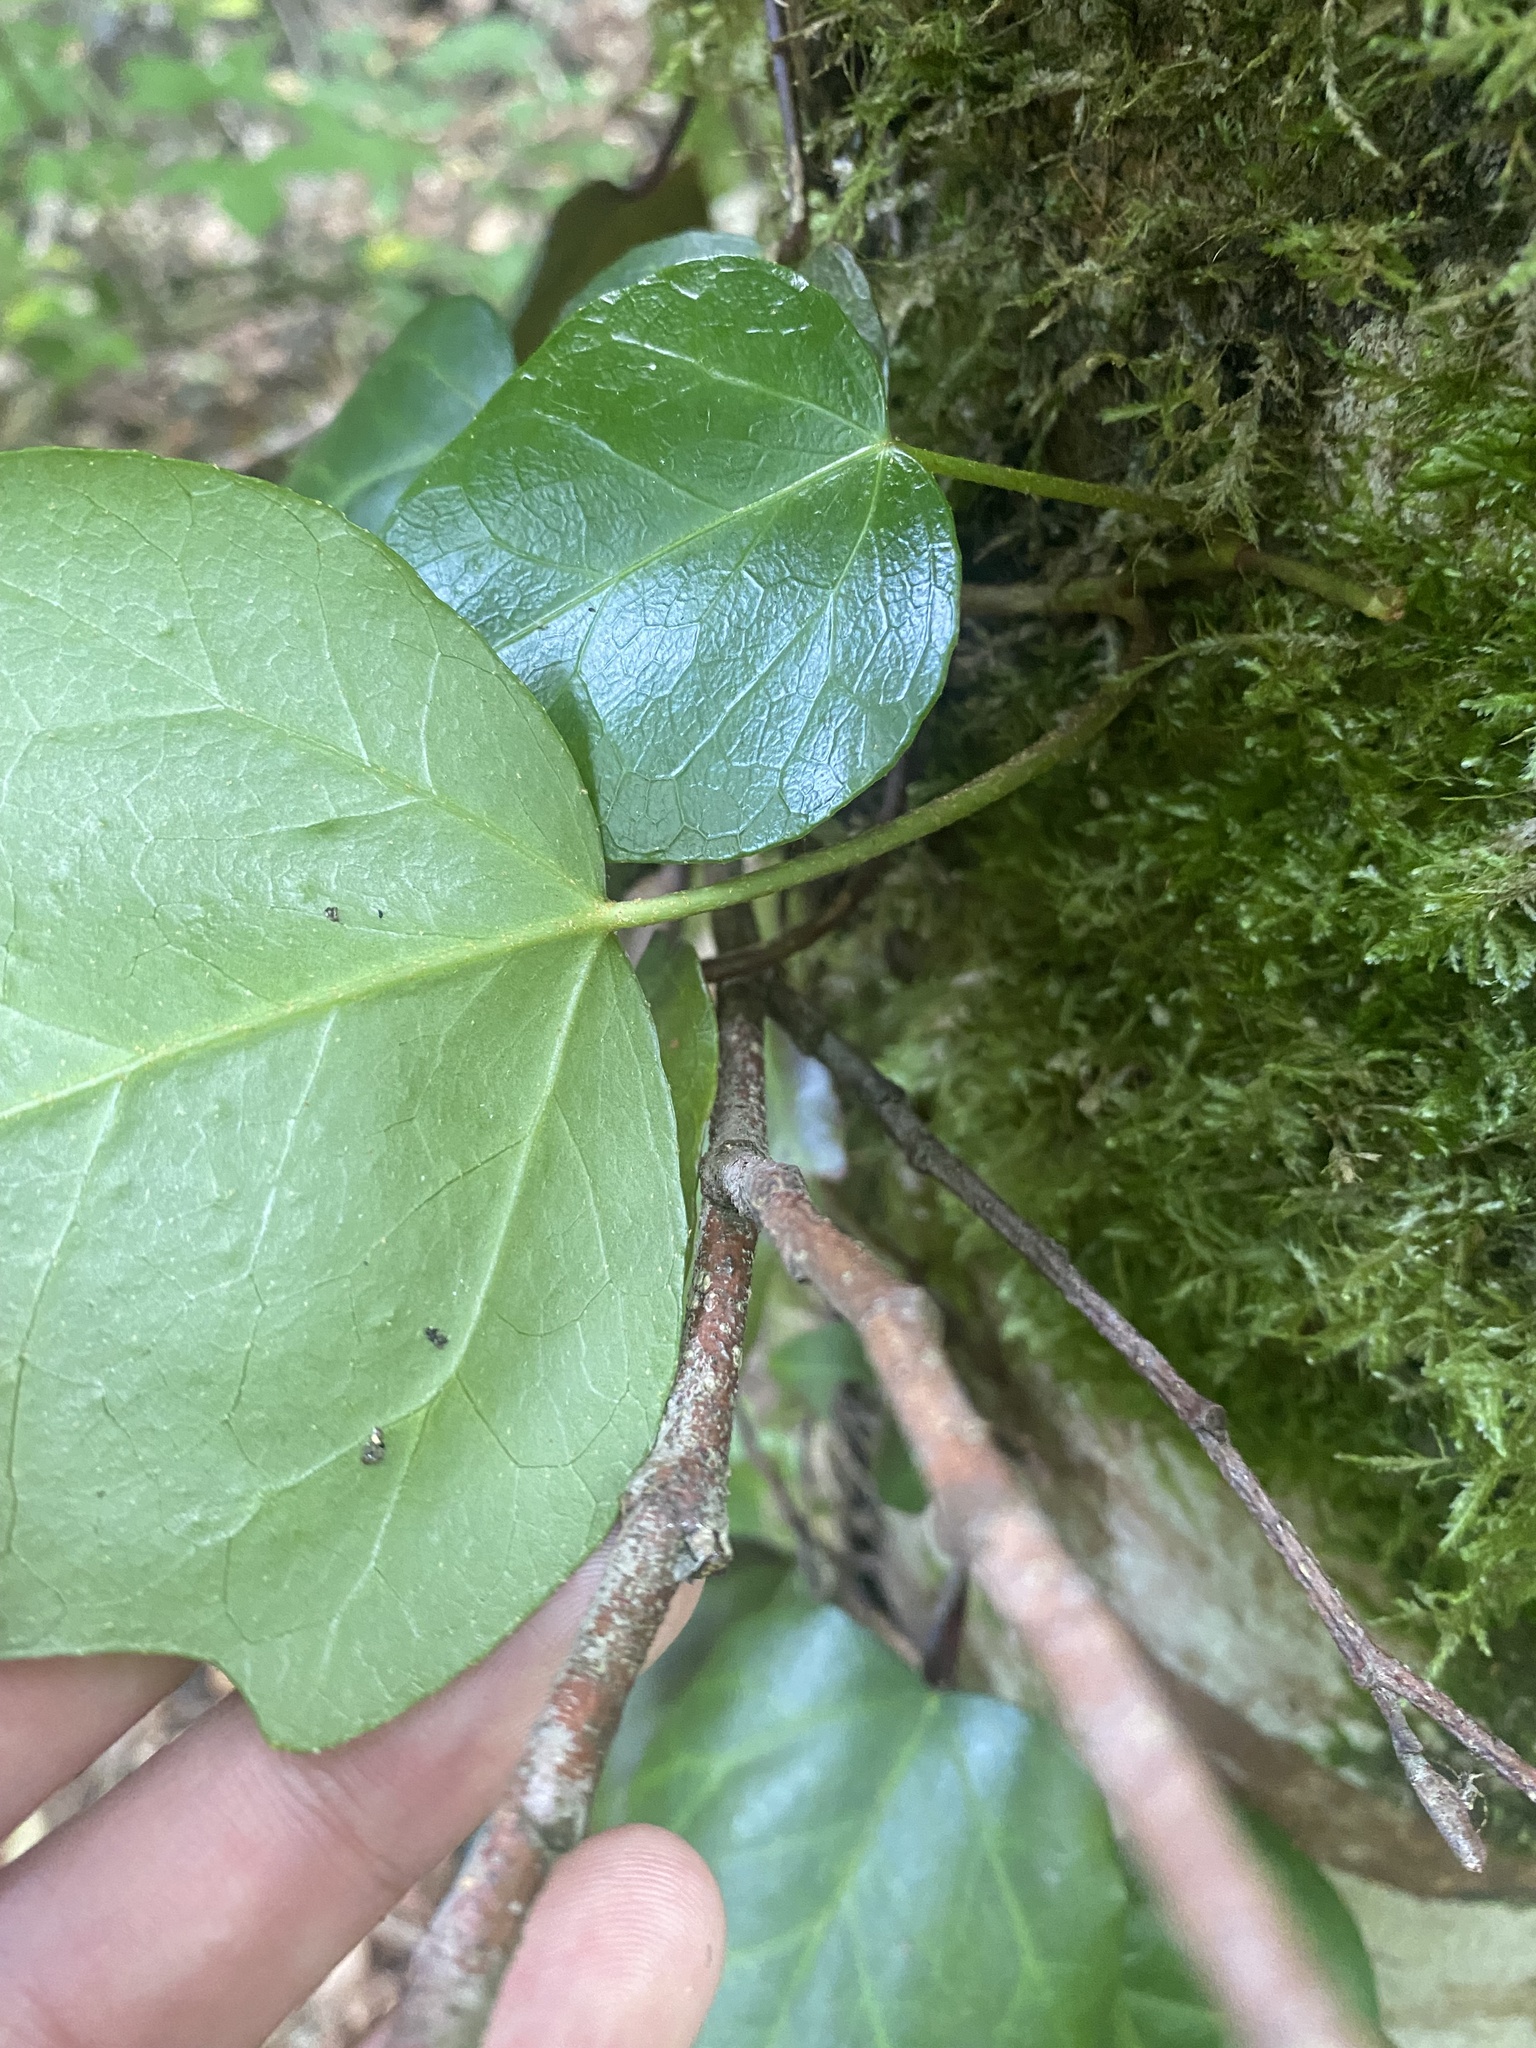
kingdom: Plantae
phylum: Tracheophyta
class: Magnoliopsida
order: Apiales
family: Araliaceae
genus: Hedera
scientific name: Hedera colchica
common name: Persian ivy
